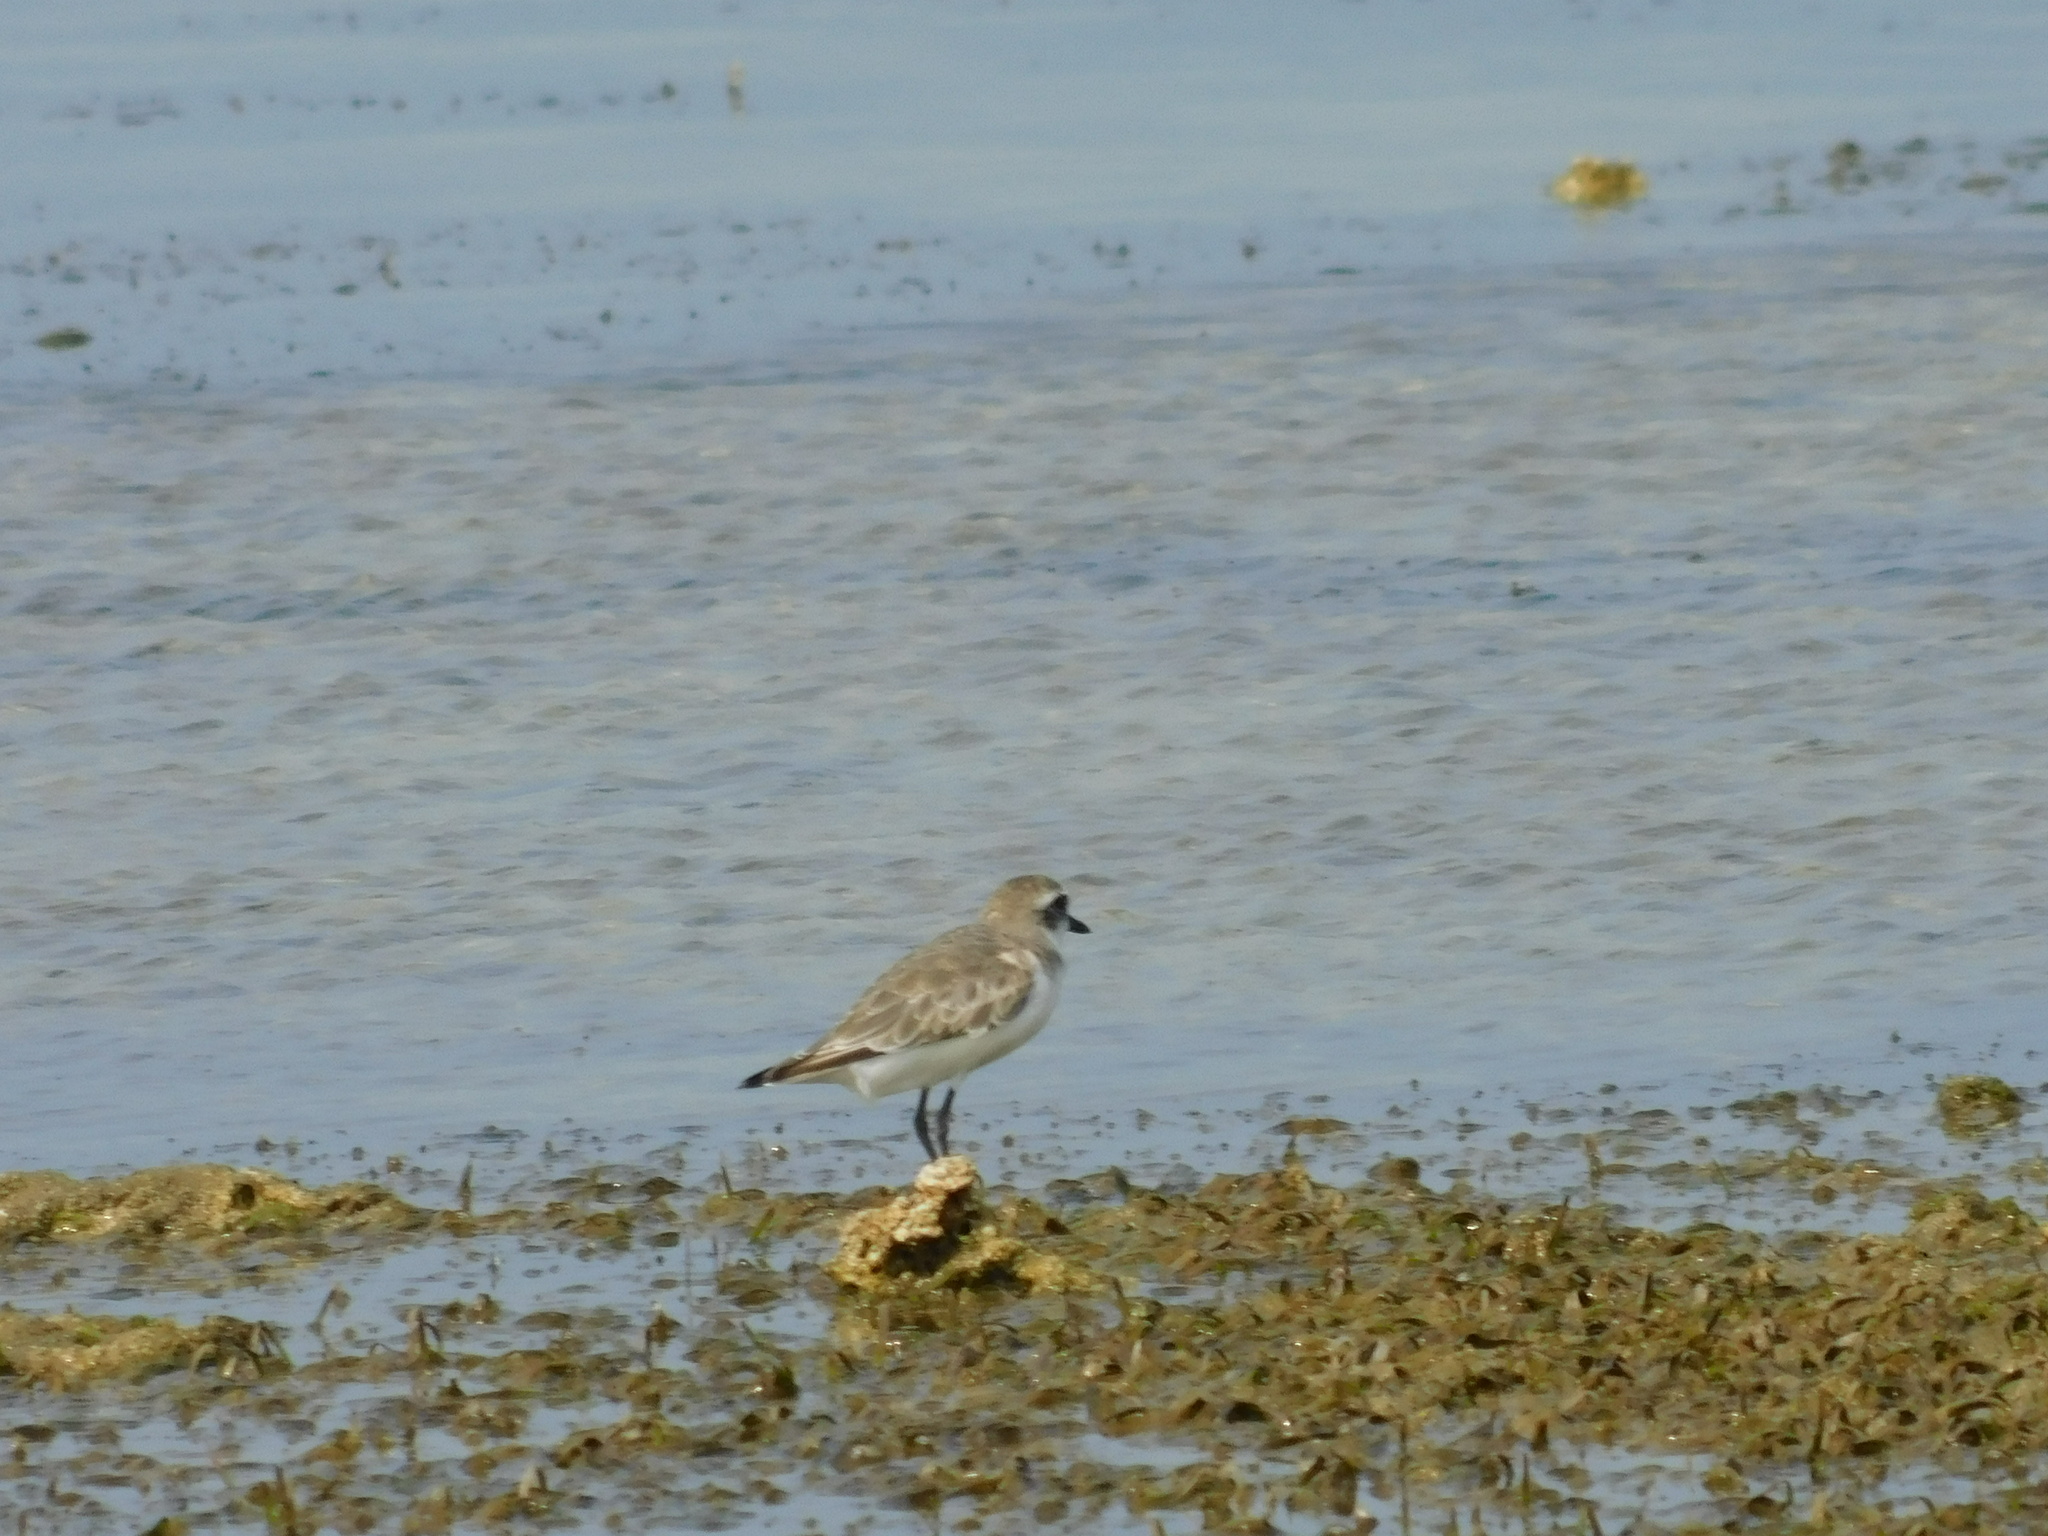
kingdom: Animalia
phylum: Chordata
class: Aves
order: Charadriiformes
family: Charadriidae
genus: Charadrius
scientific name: Charadrius leschenaultii
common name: Greater sand plover
